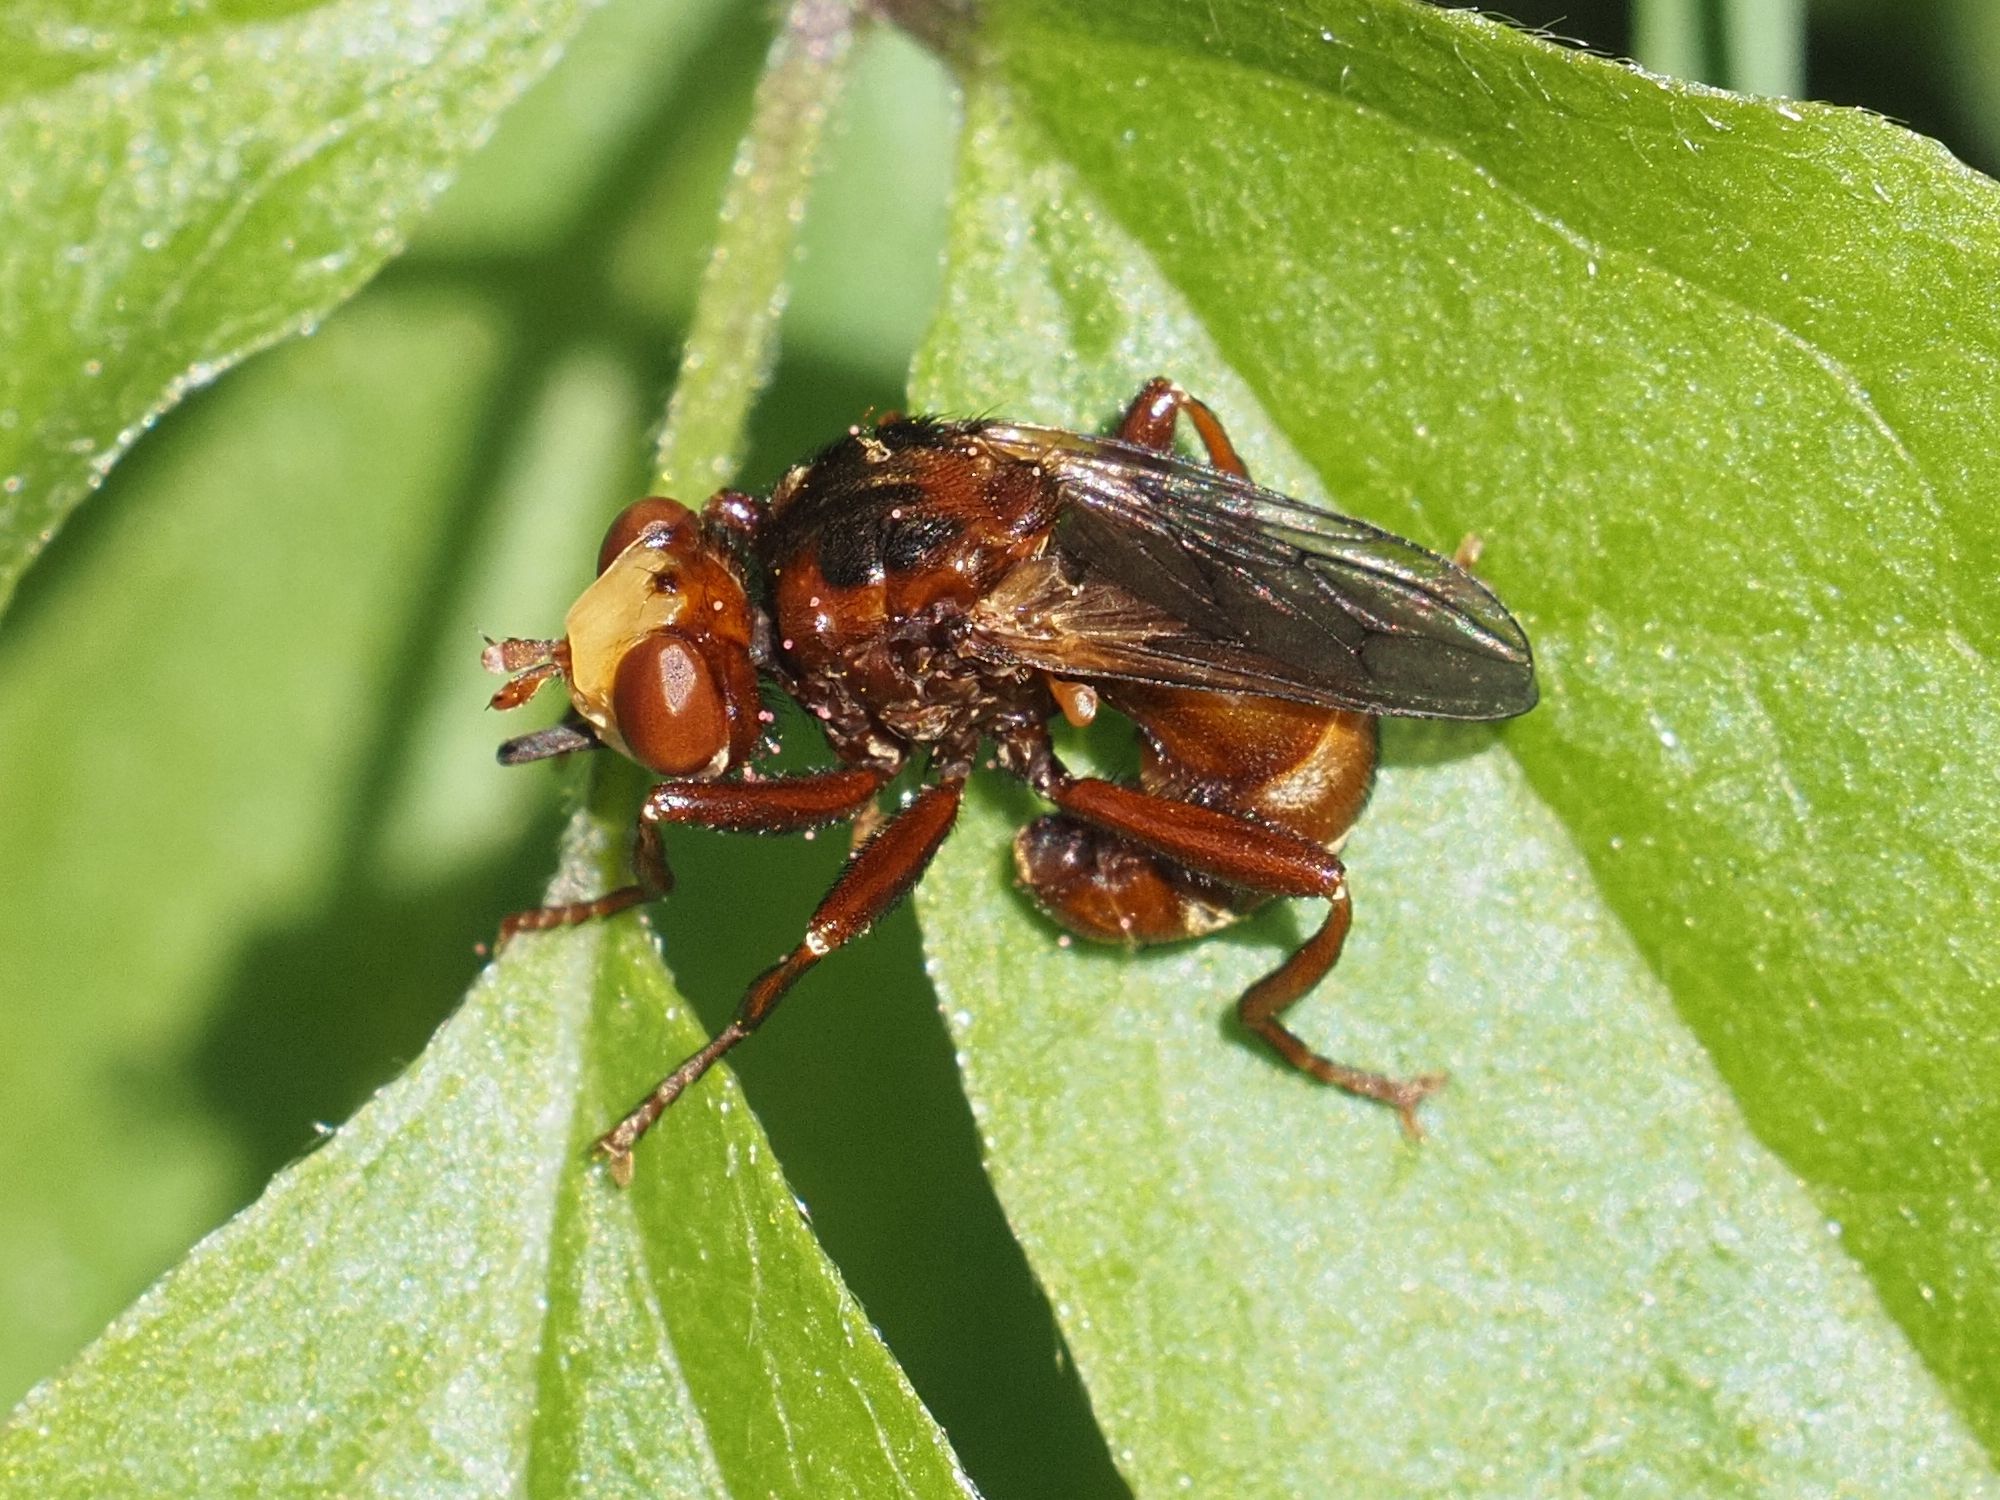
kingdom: Animalia
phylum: Arthropoda
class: Insecta
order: Diptera
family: Conopidae
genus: Sicus
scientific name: Sicus ferrugineus
